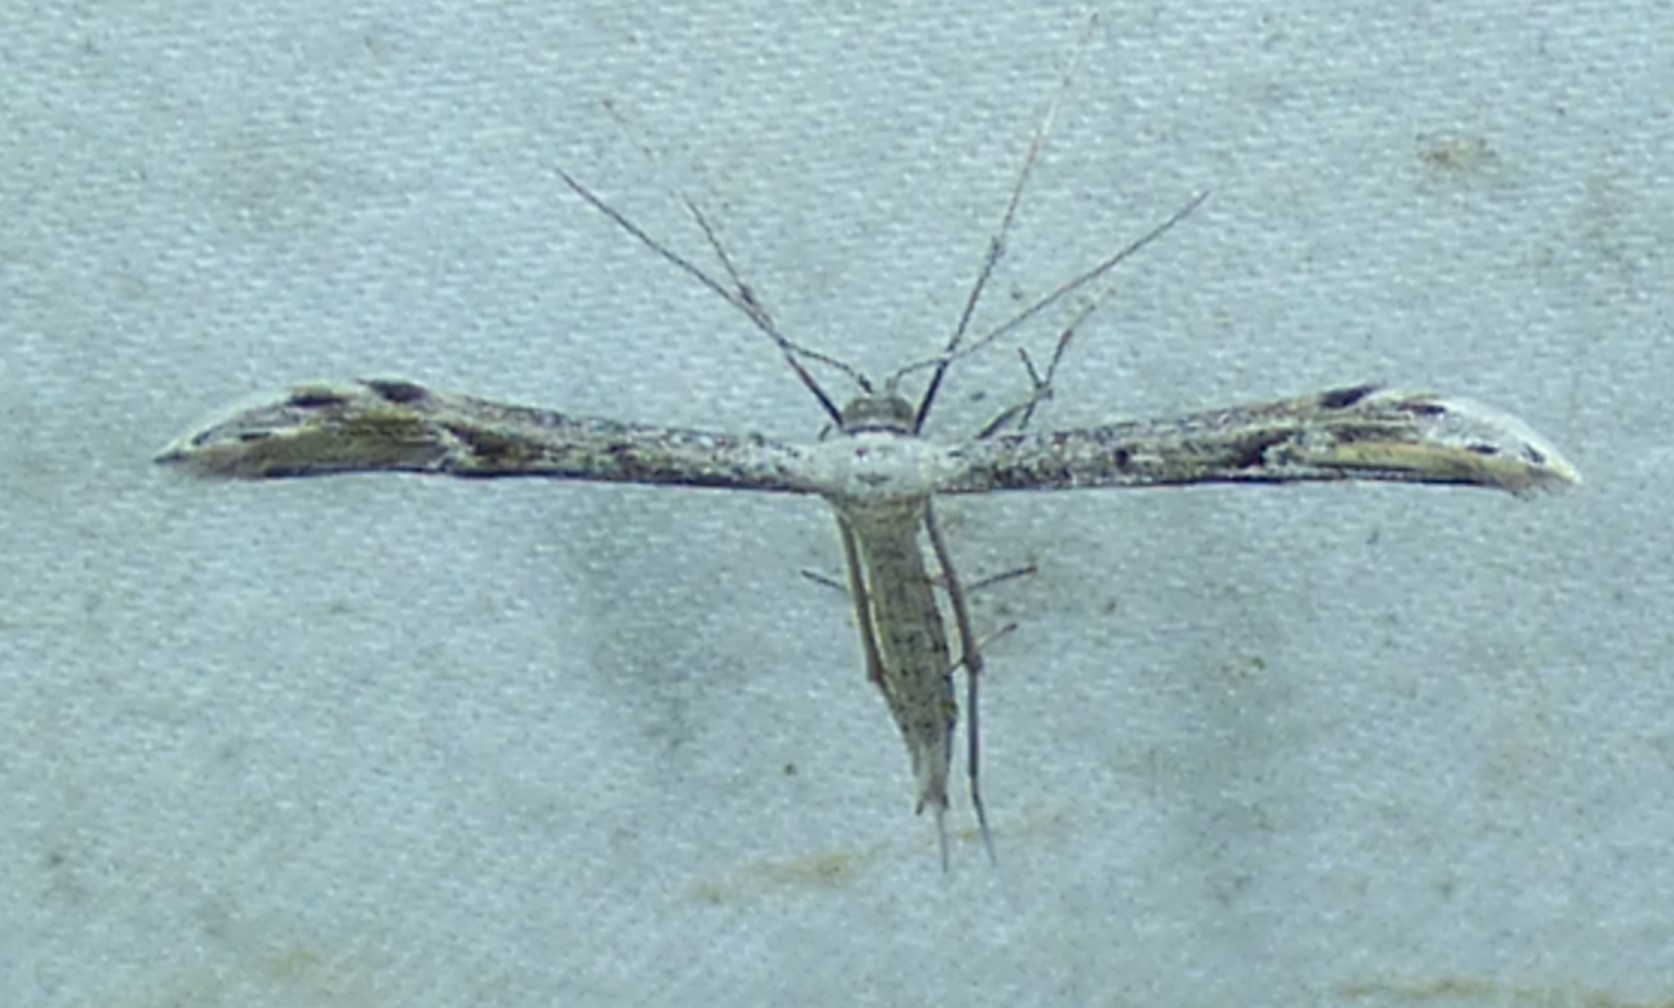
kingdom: Animalia
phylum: Arthropoda
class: Insecta
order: Lepidoptera
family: Pterophoridae
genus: Pselnophorus
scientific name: Pselnophorus belfragei
